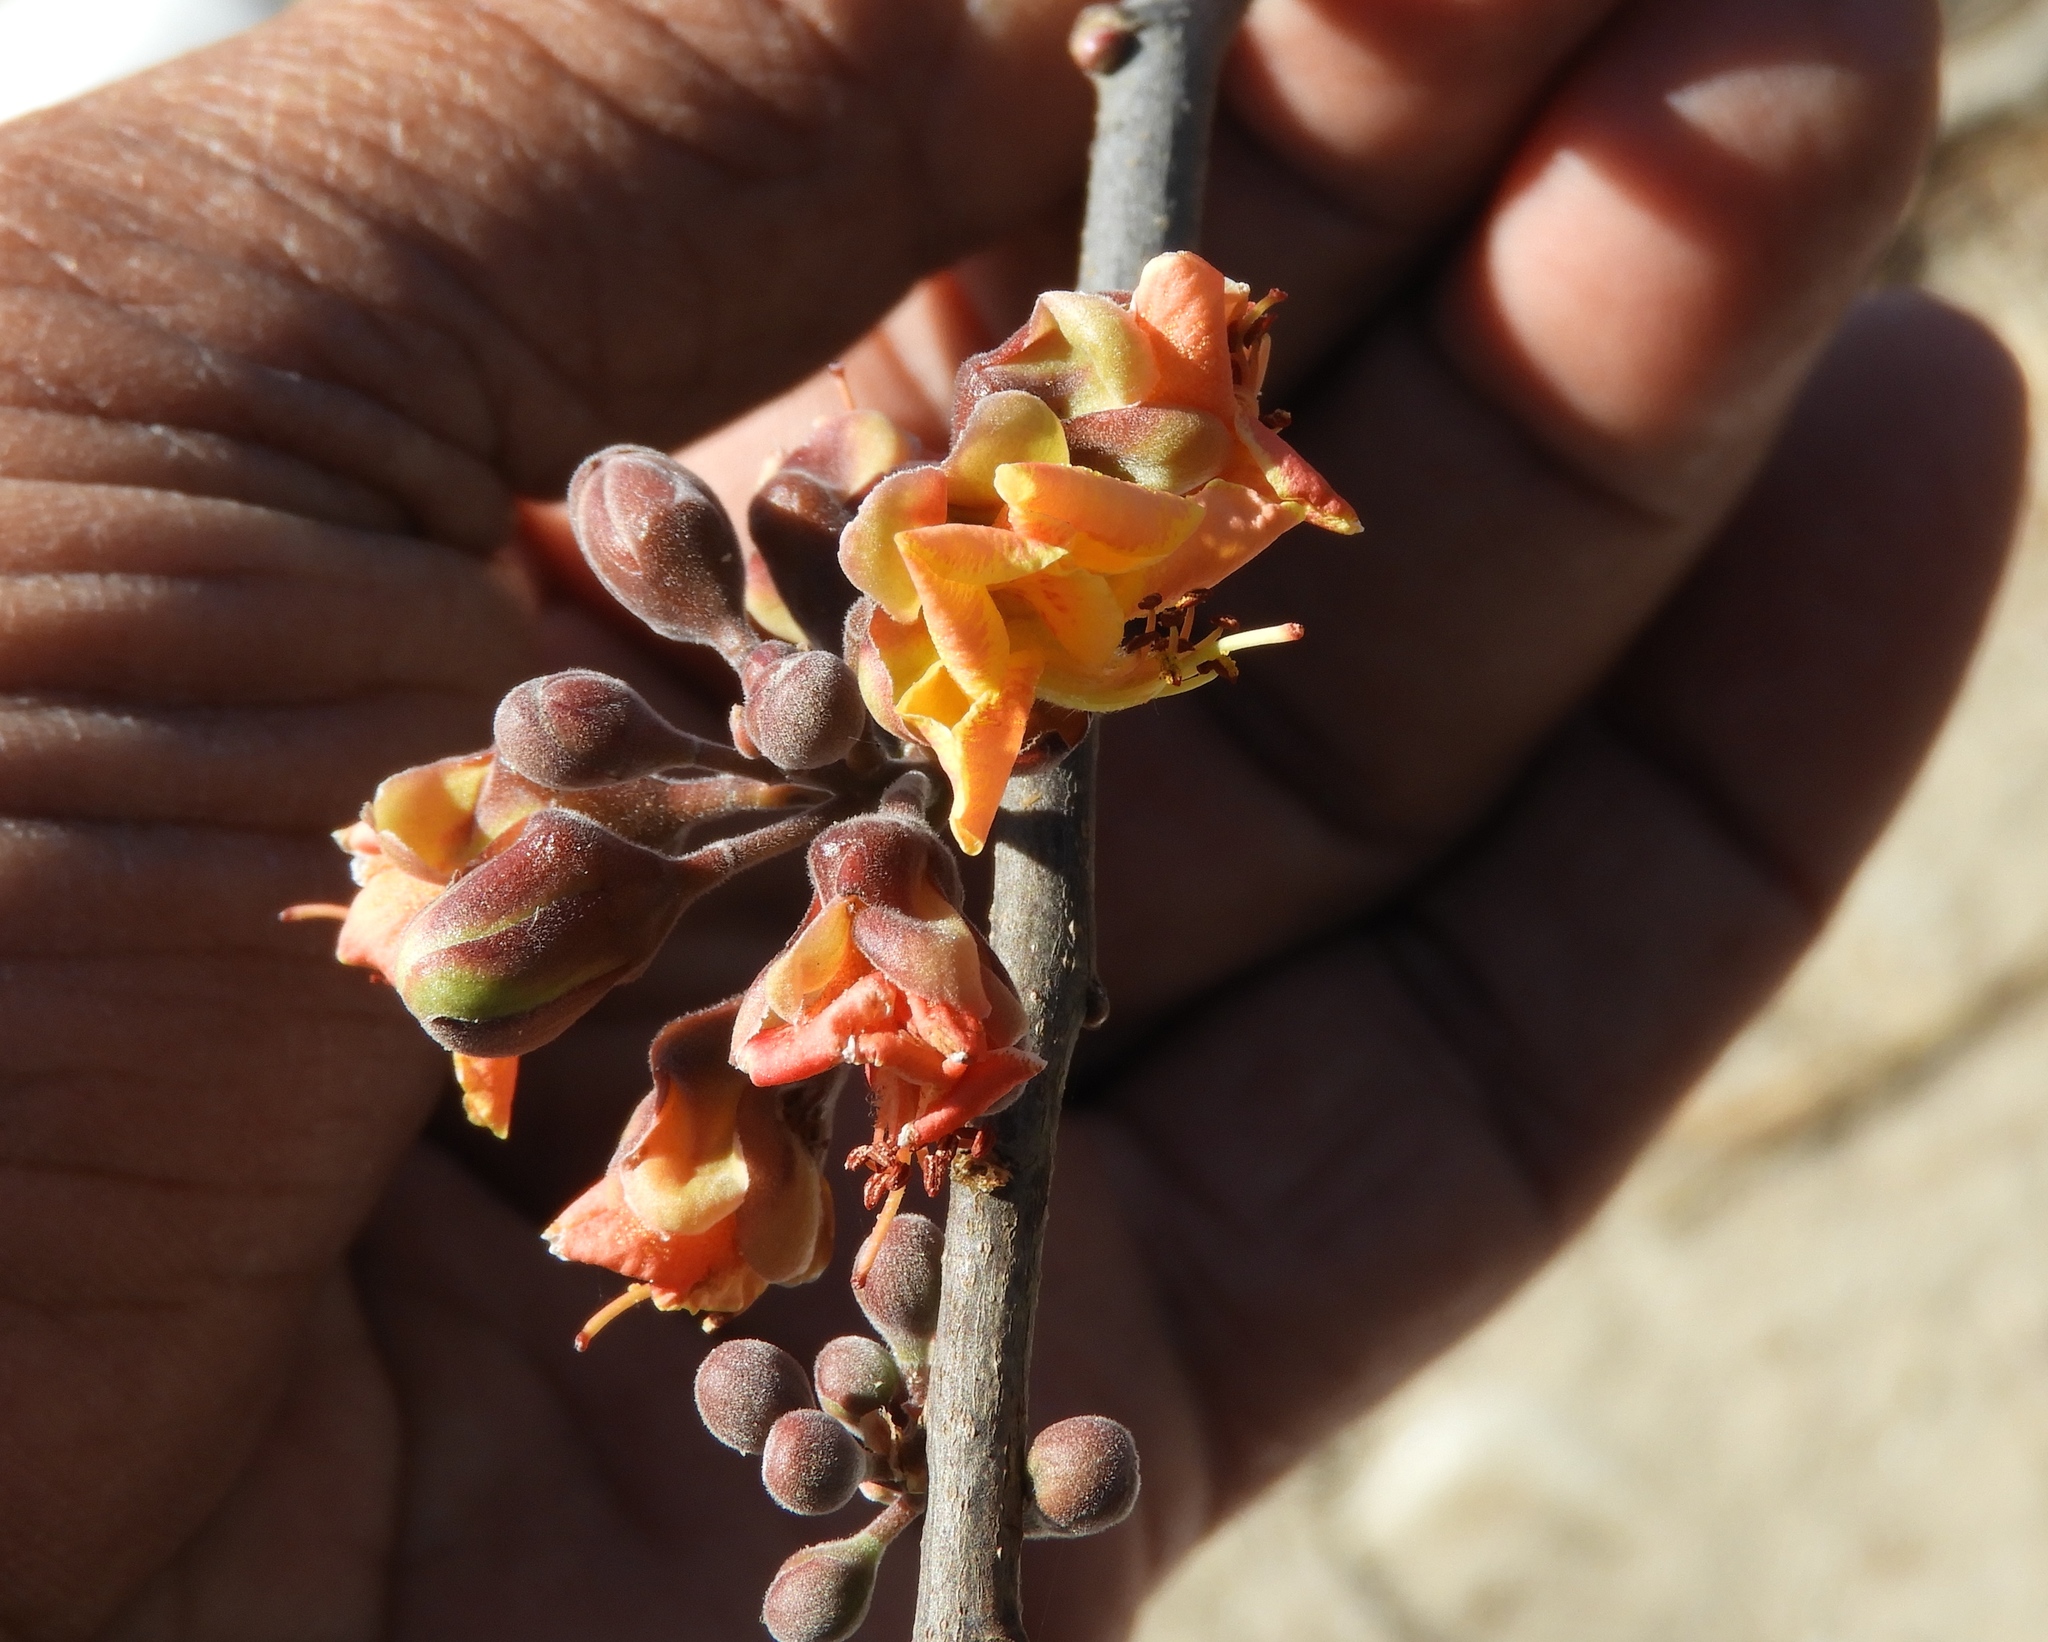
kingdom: Plantae
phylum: Tracheophyta
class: Magnoliopsida
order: Fabales
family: Fabaceae
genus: Erythrostemon
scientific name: Erythrostemon palmeri
